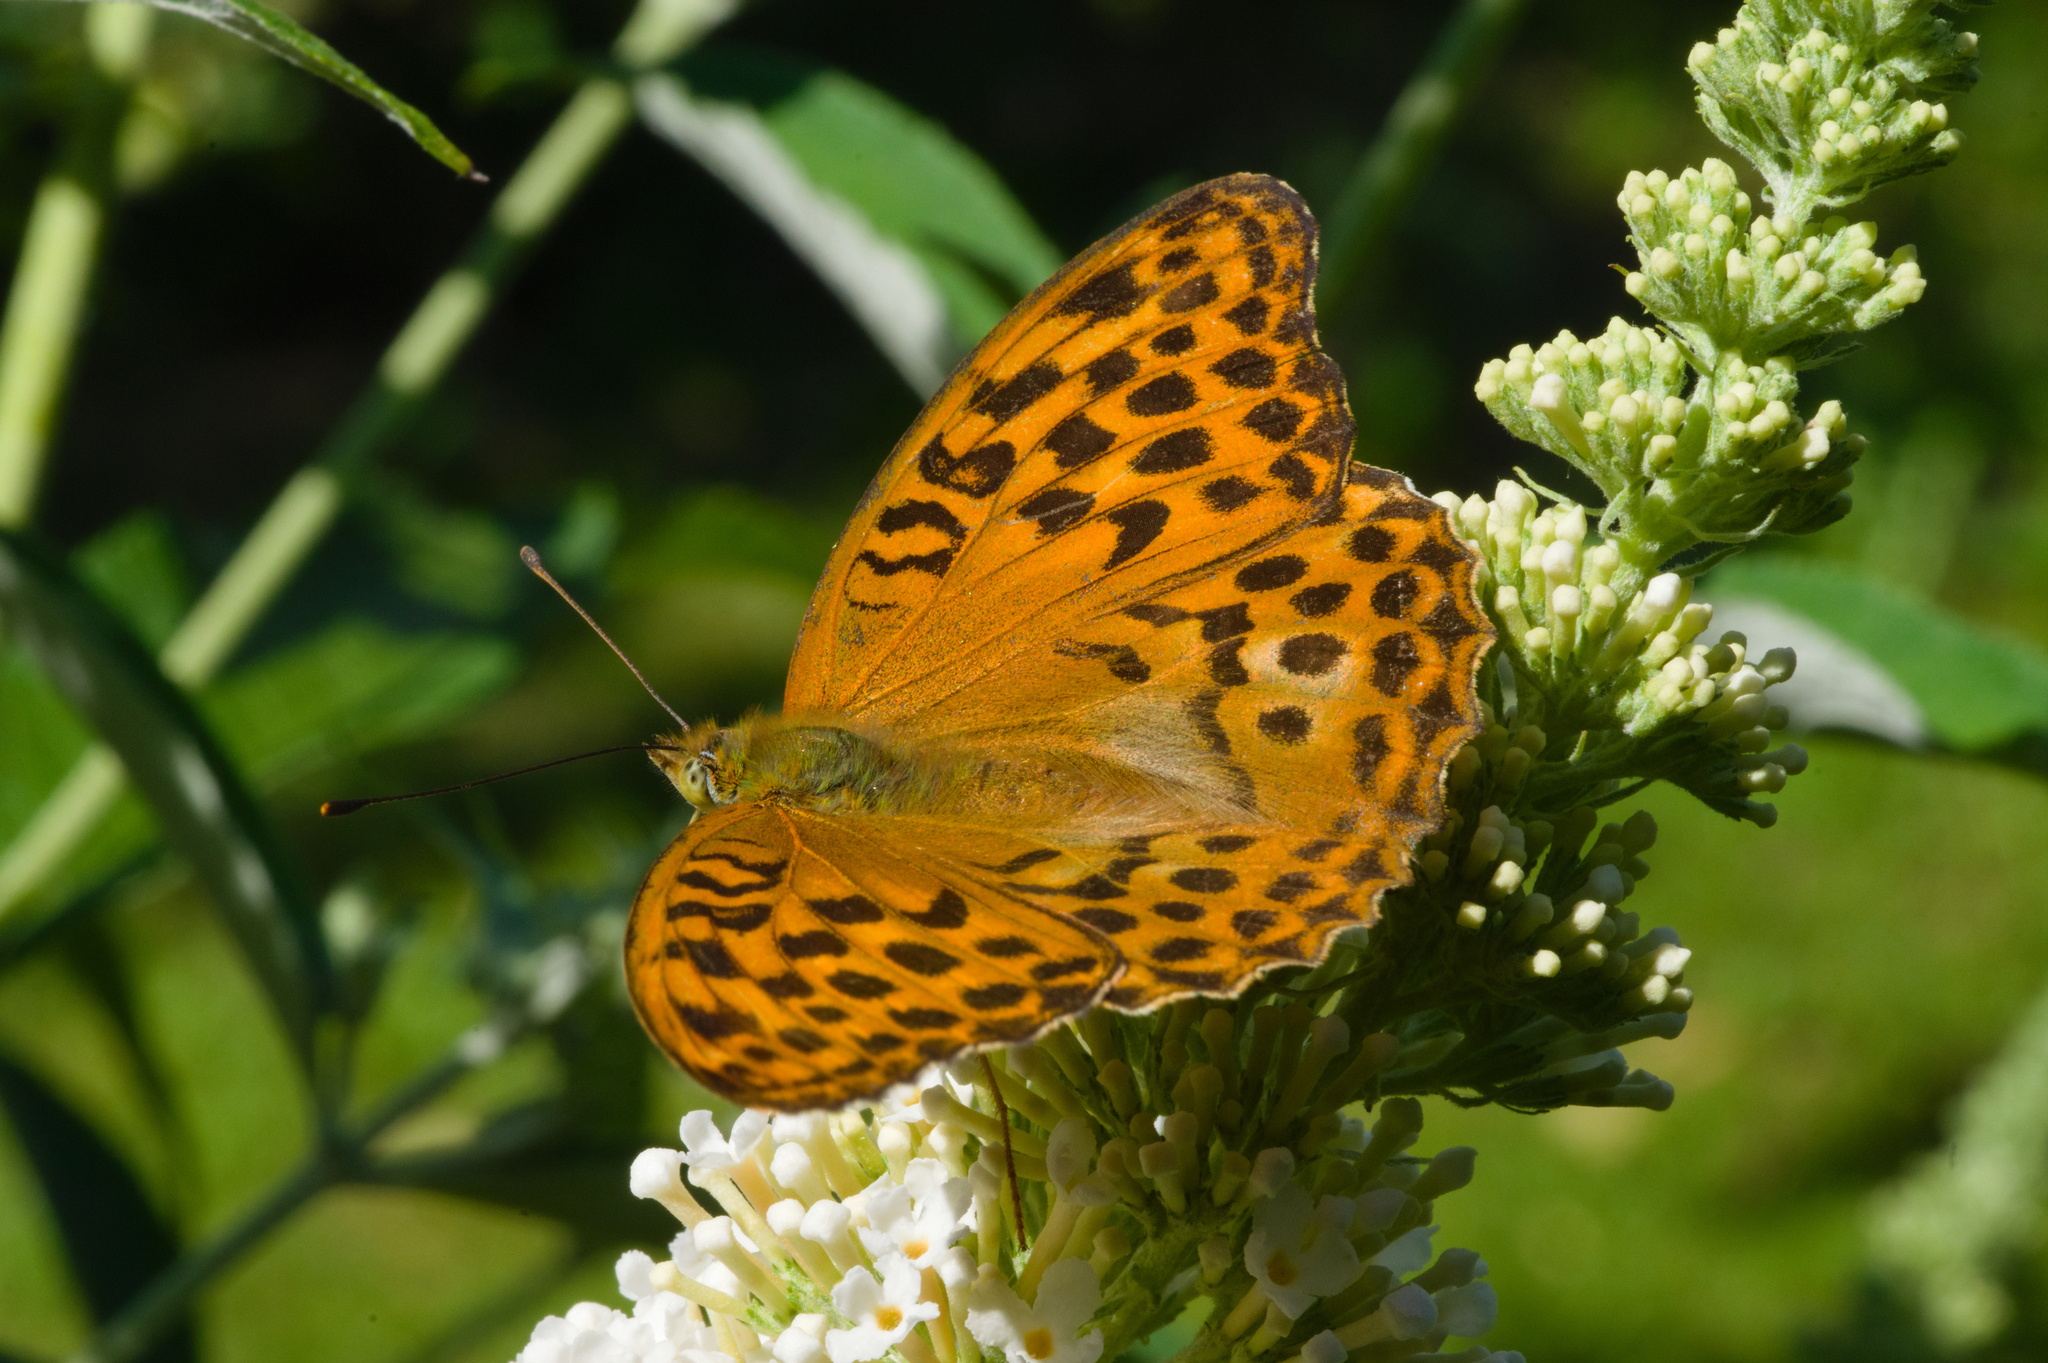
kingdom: Animalia
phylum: Arthropoda
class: Insecta
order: Lepidoptera
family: Nymphalidae
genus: Argynnis
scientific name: Argynnis paphia
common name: Silver-washed fritillary
